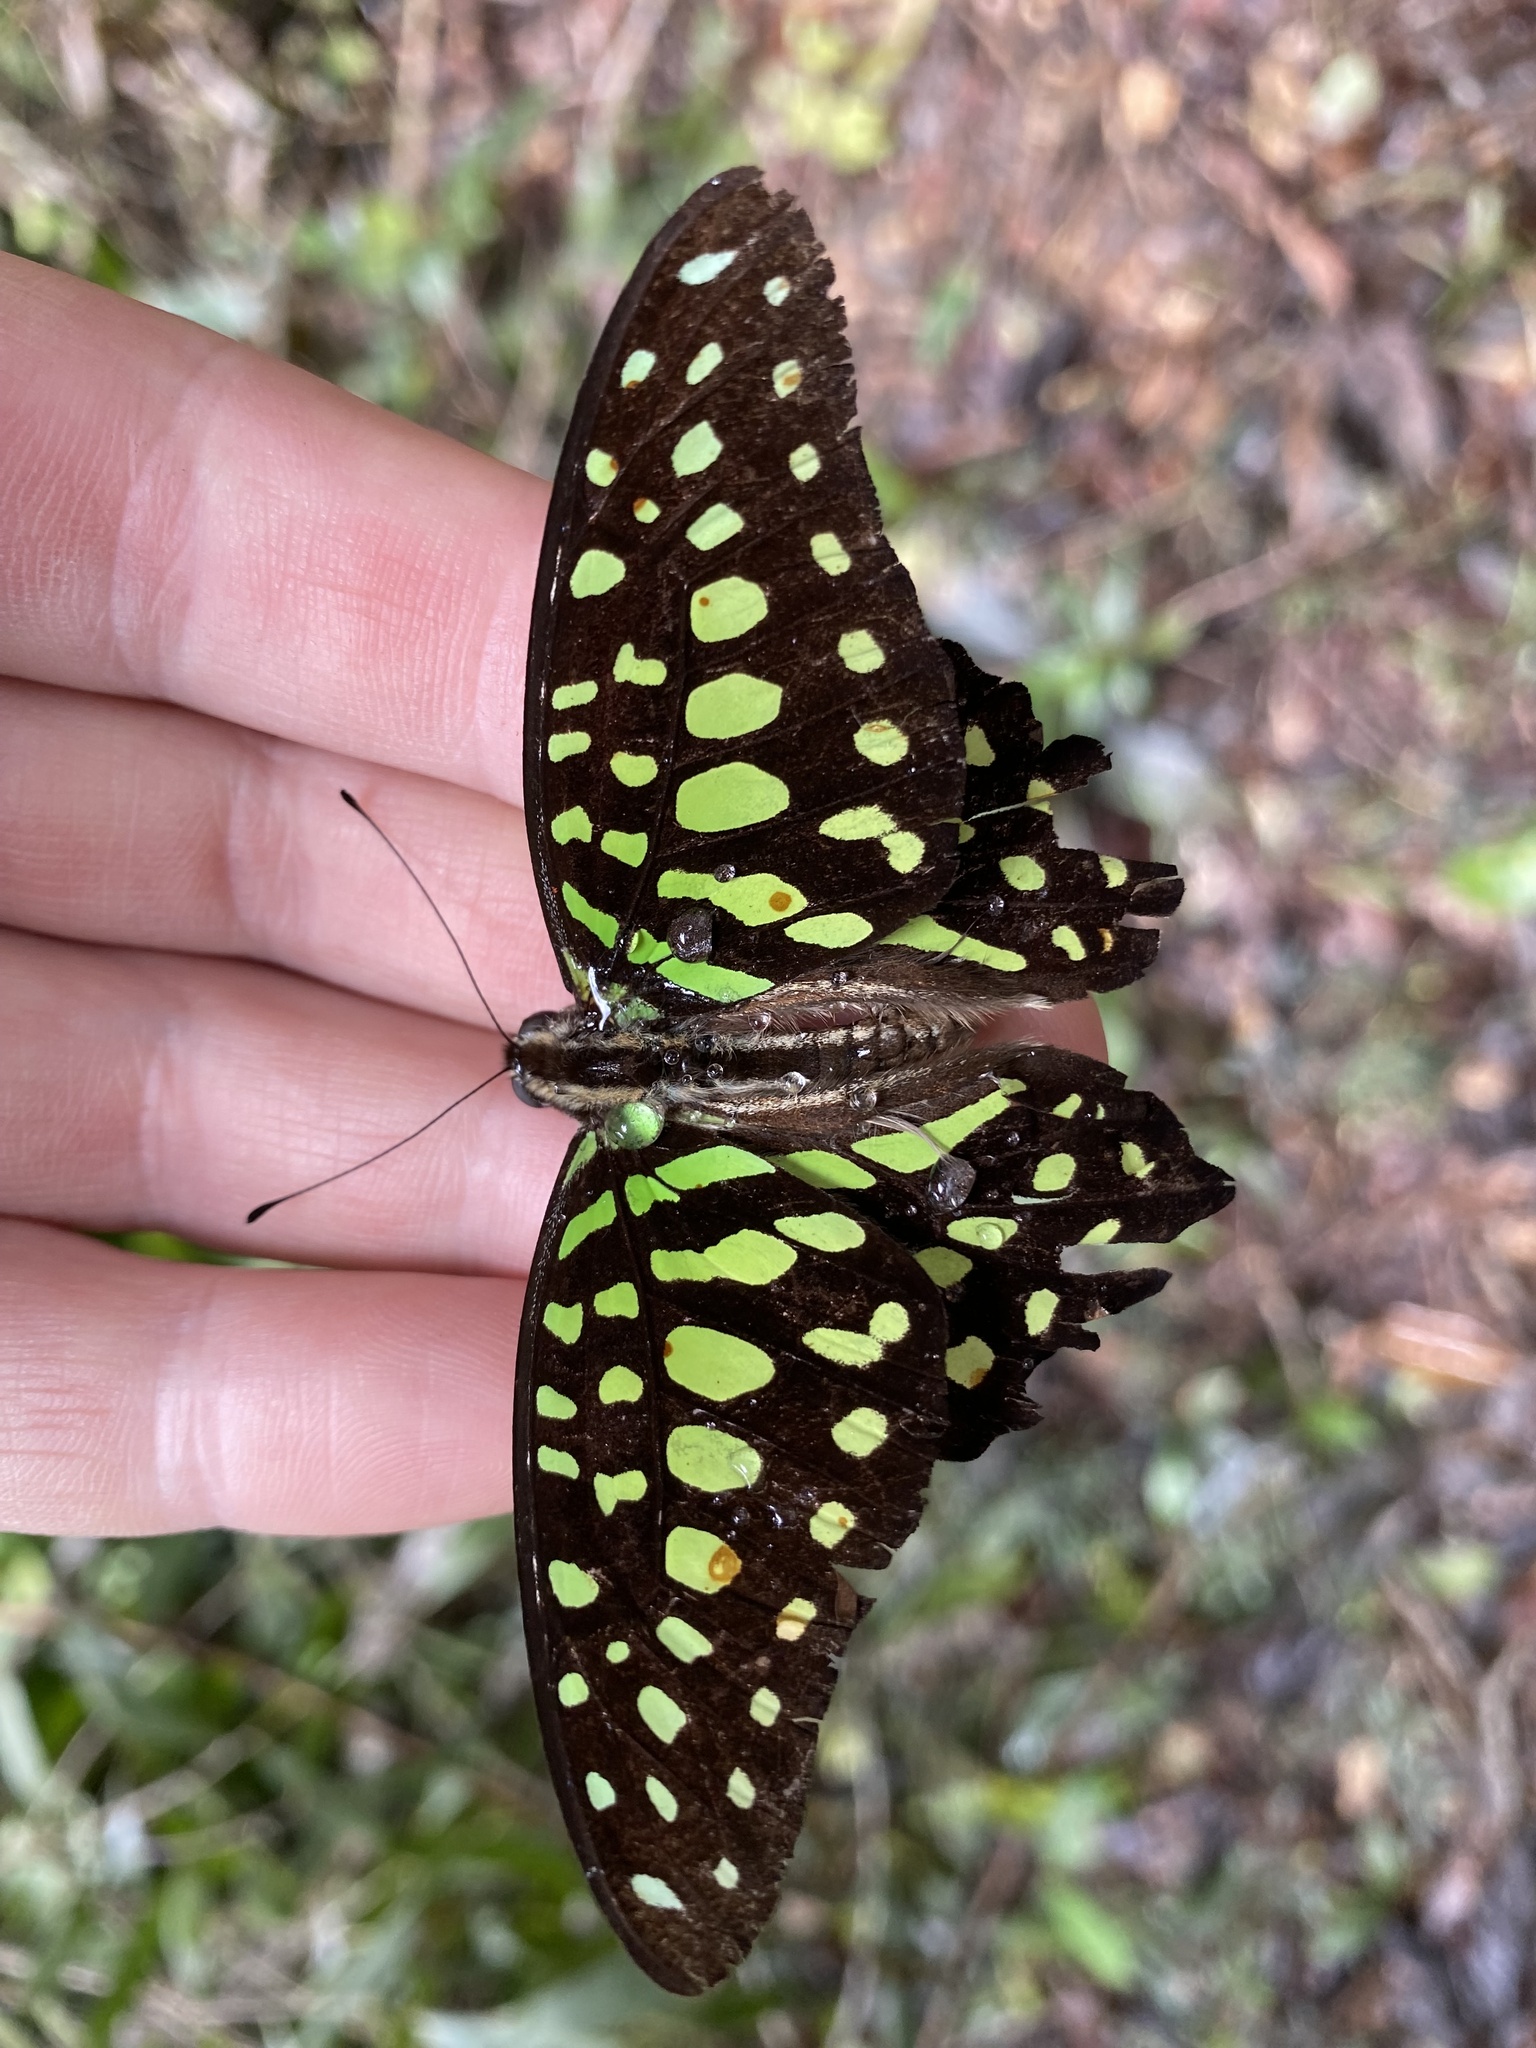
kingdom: Animalia
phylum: Arthropoda
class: Insecta
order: Lepidoptera
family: Papilionidae
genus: Graphium
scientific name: Graphium agamemnon
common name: Tailed jay
